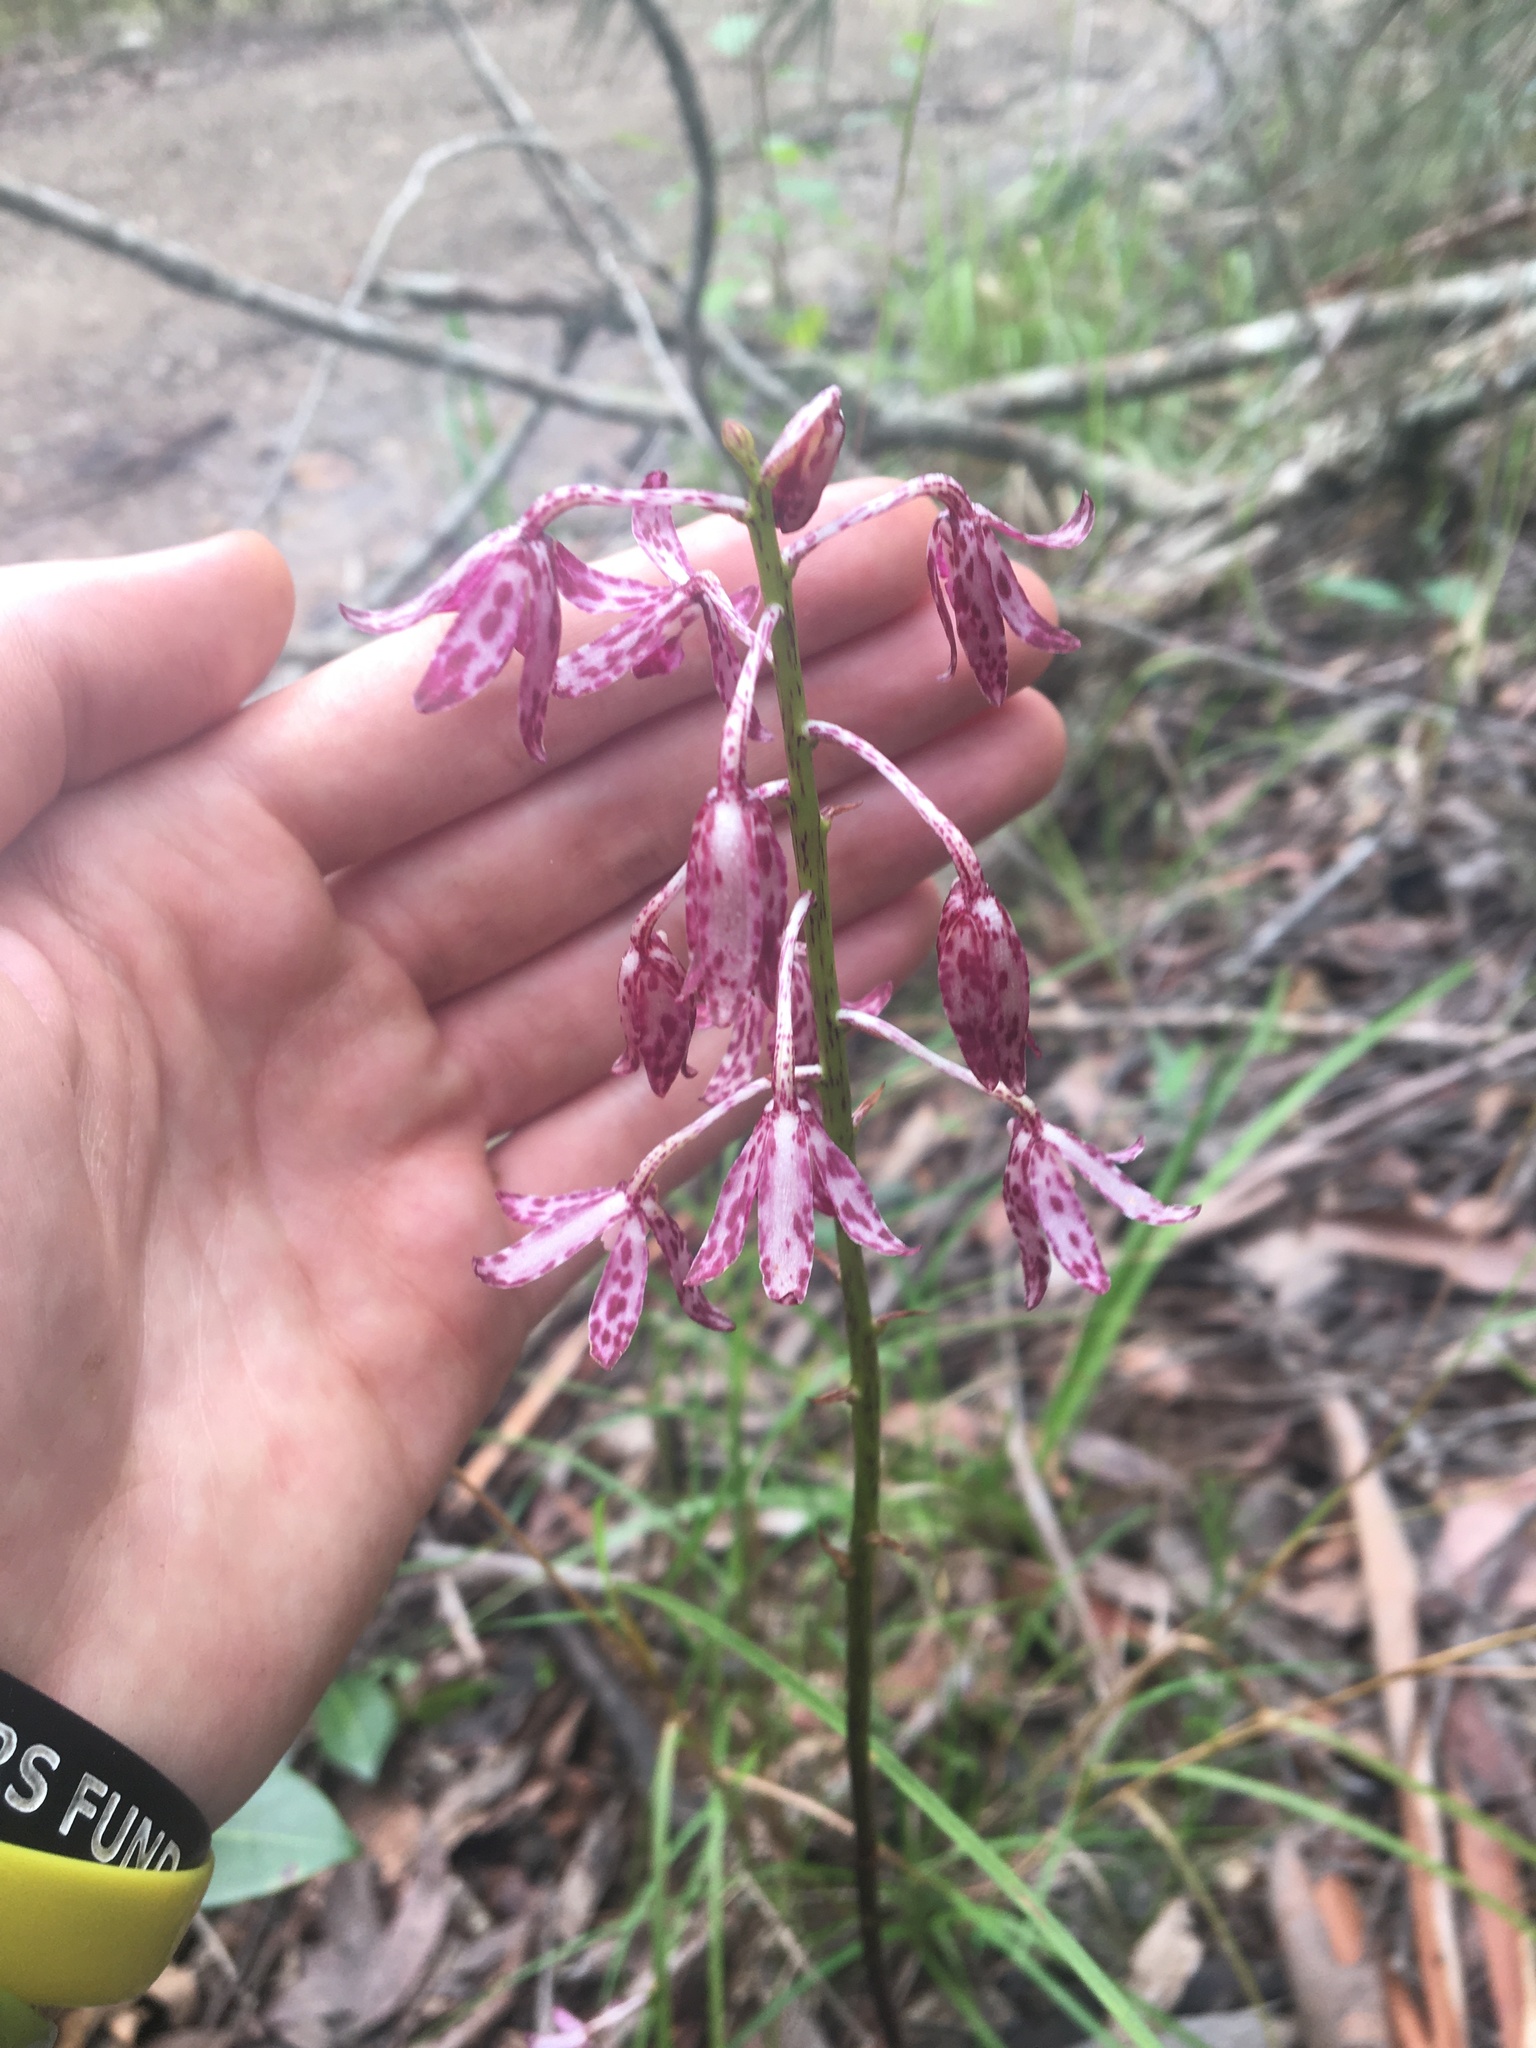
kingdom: Plantae
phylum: Tracheophyta
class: Liliopsida
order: Asparagales
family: Orchidaceae
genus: Dipodium
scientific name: Dipodium variegatum
